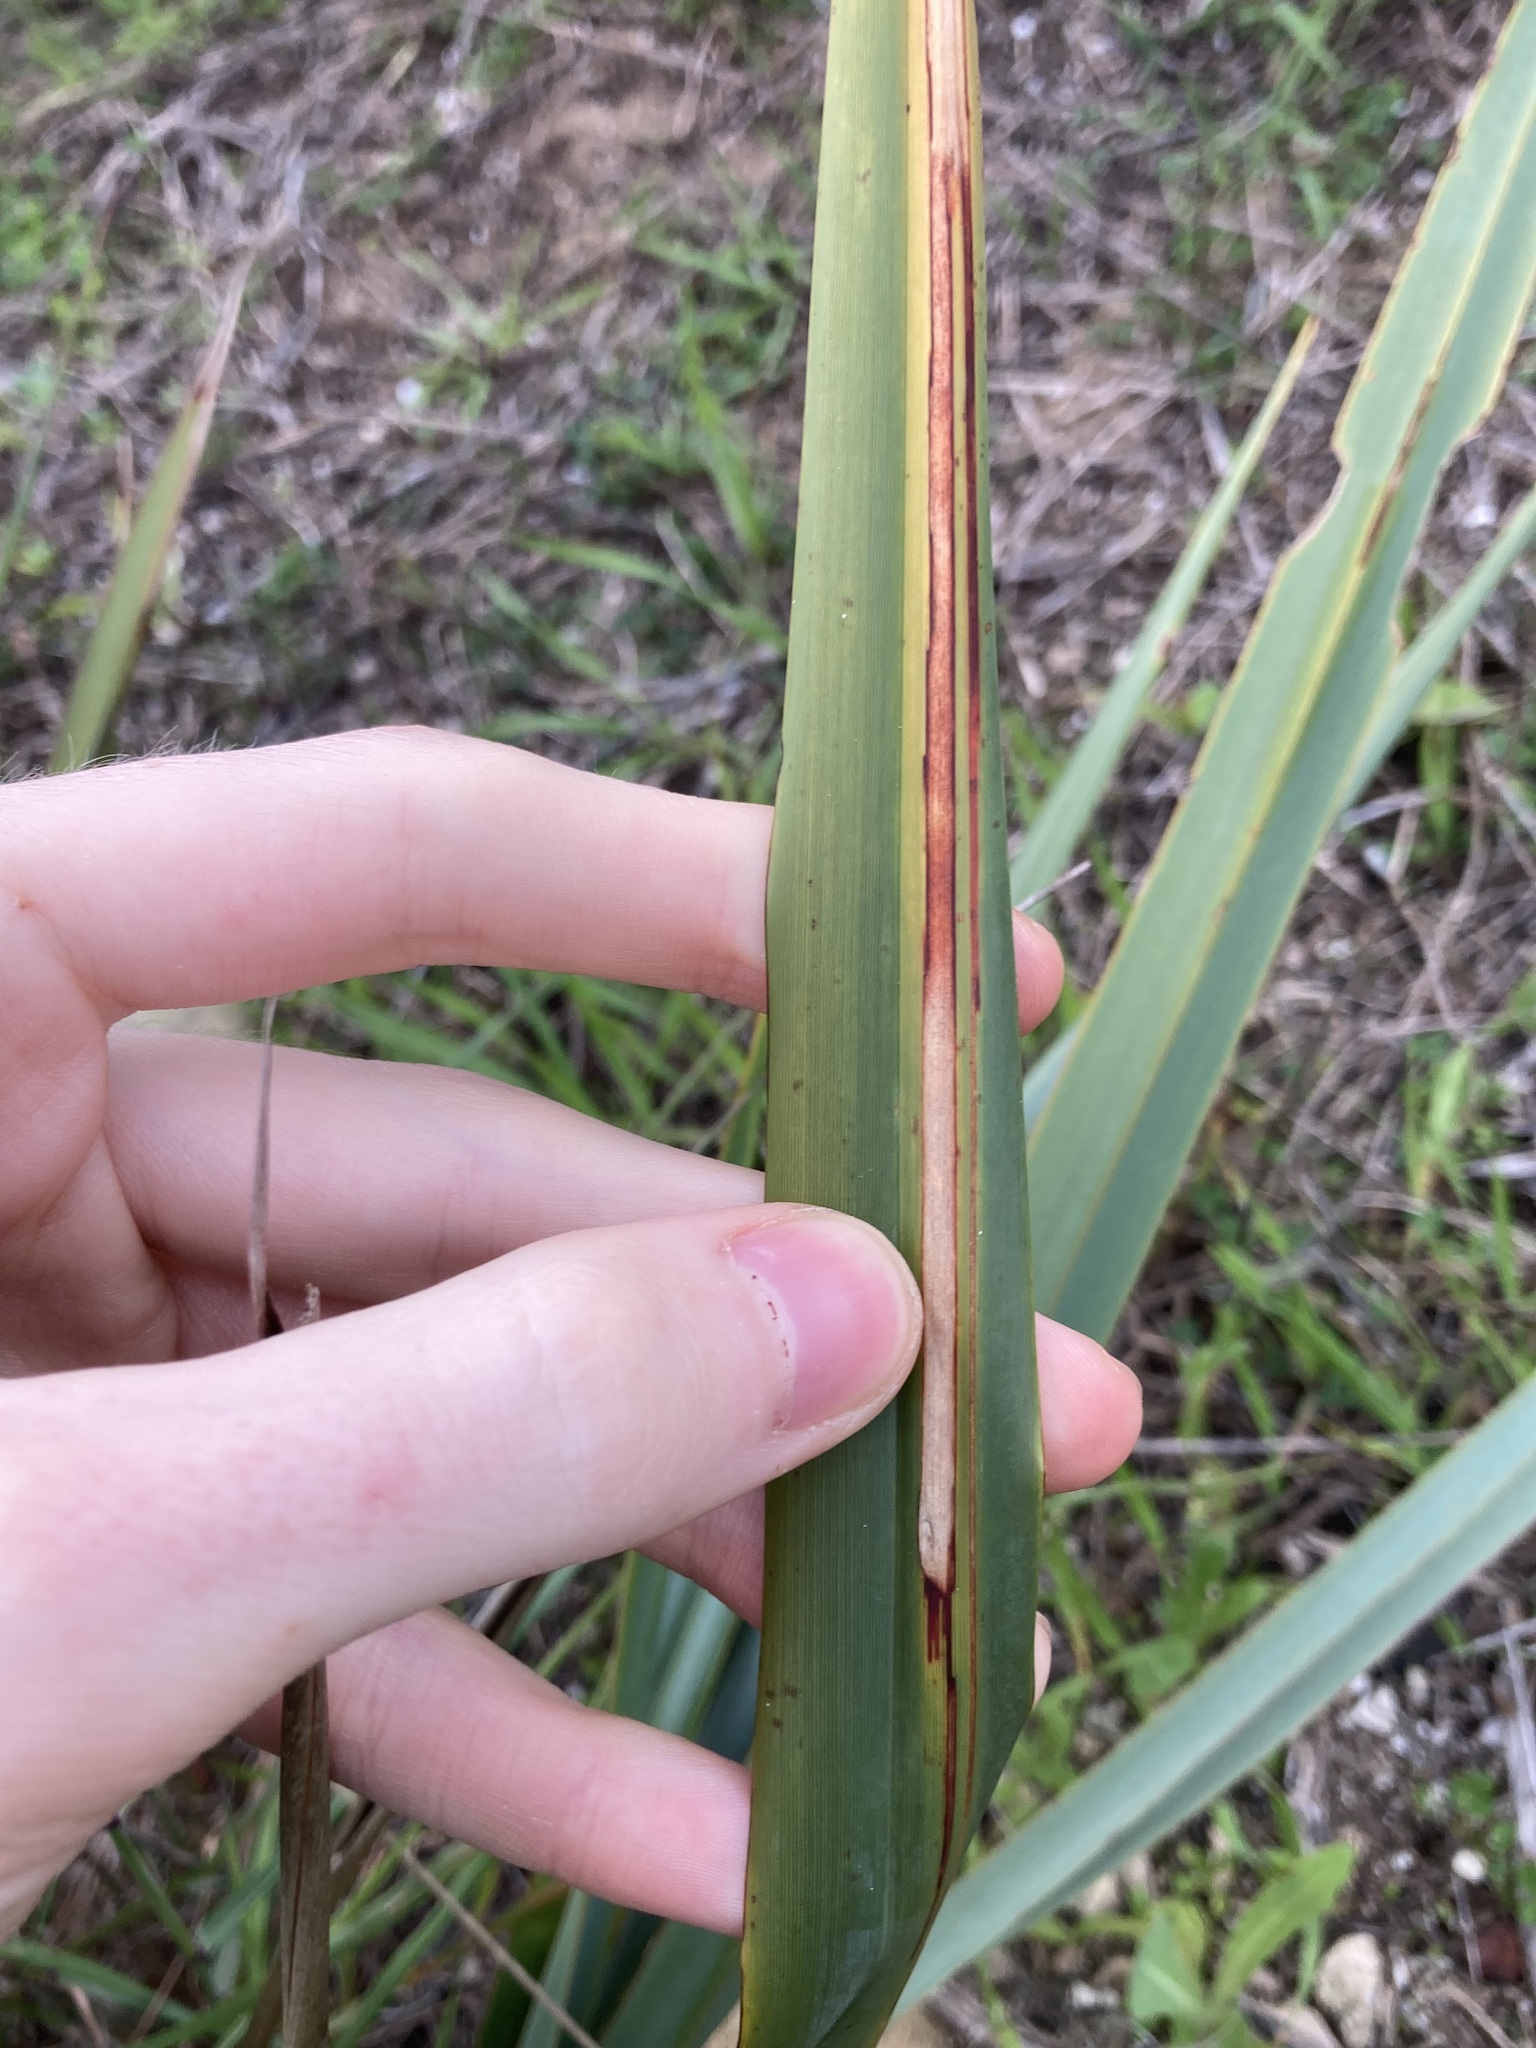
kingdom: Plantae
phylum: Tracheophyta
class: Liliopsida
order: Asparagales
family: Asphodelaceae
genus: Dianella
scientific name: Dianella revoluta
